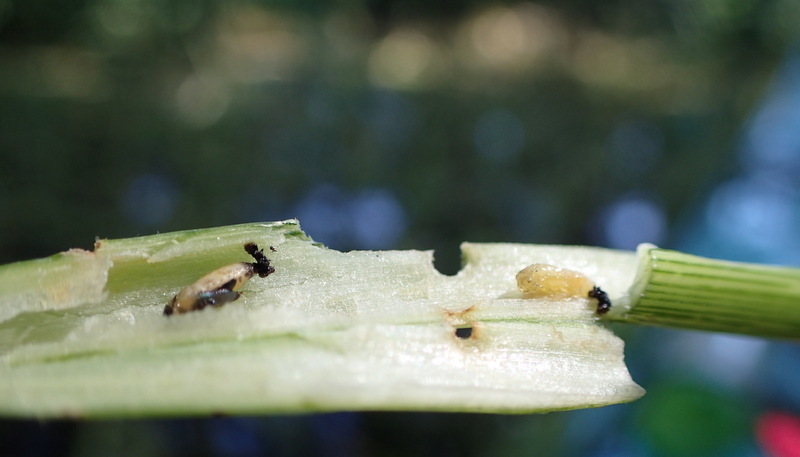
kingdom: Animalia
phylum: Arthropoda
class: Insecta
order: Coleoptera
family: Chrysomelidae
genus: Agasicles
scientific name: Agasicles hygrophila
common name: Alligatorweed flea beetle
